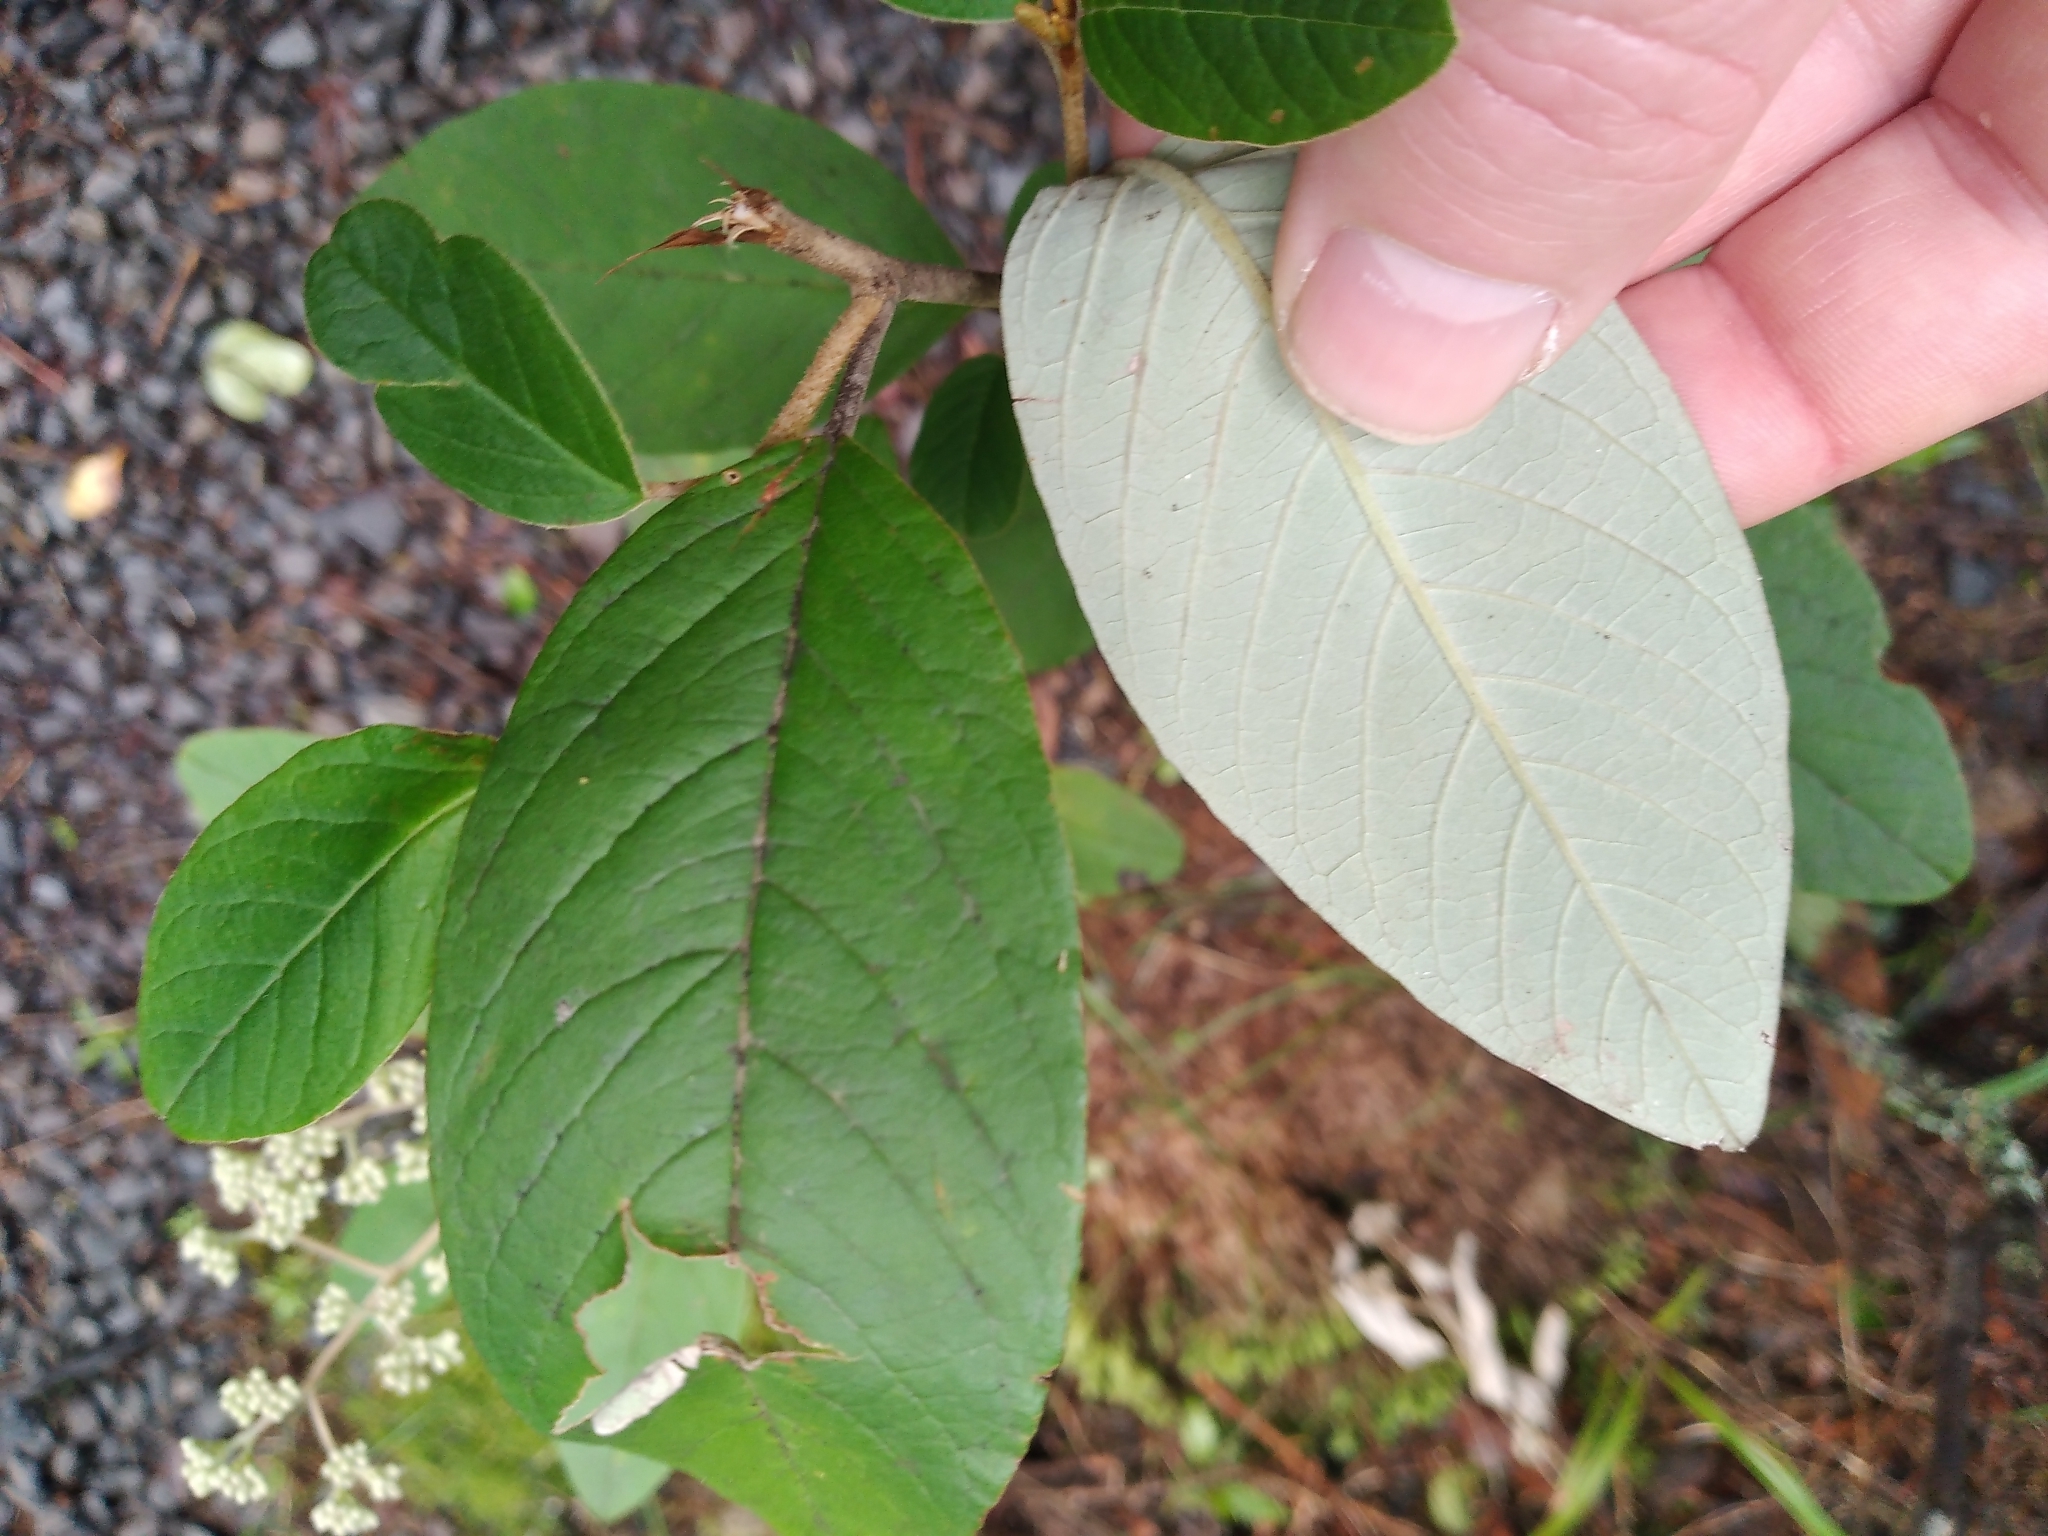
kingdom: Plantae
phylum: Tracheophyta
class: Magnoliopsida
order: Rosales
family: Rhamnaceae
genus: Pomaderris
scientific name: Pomaderris kumeraho
